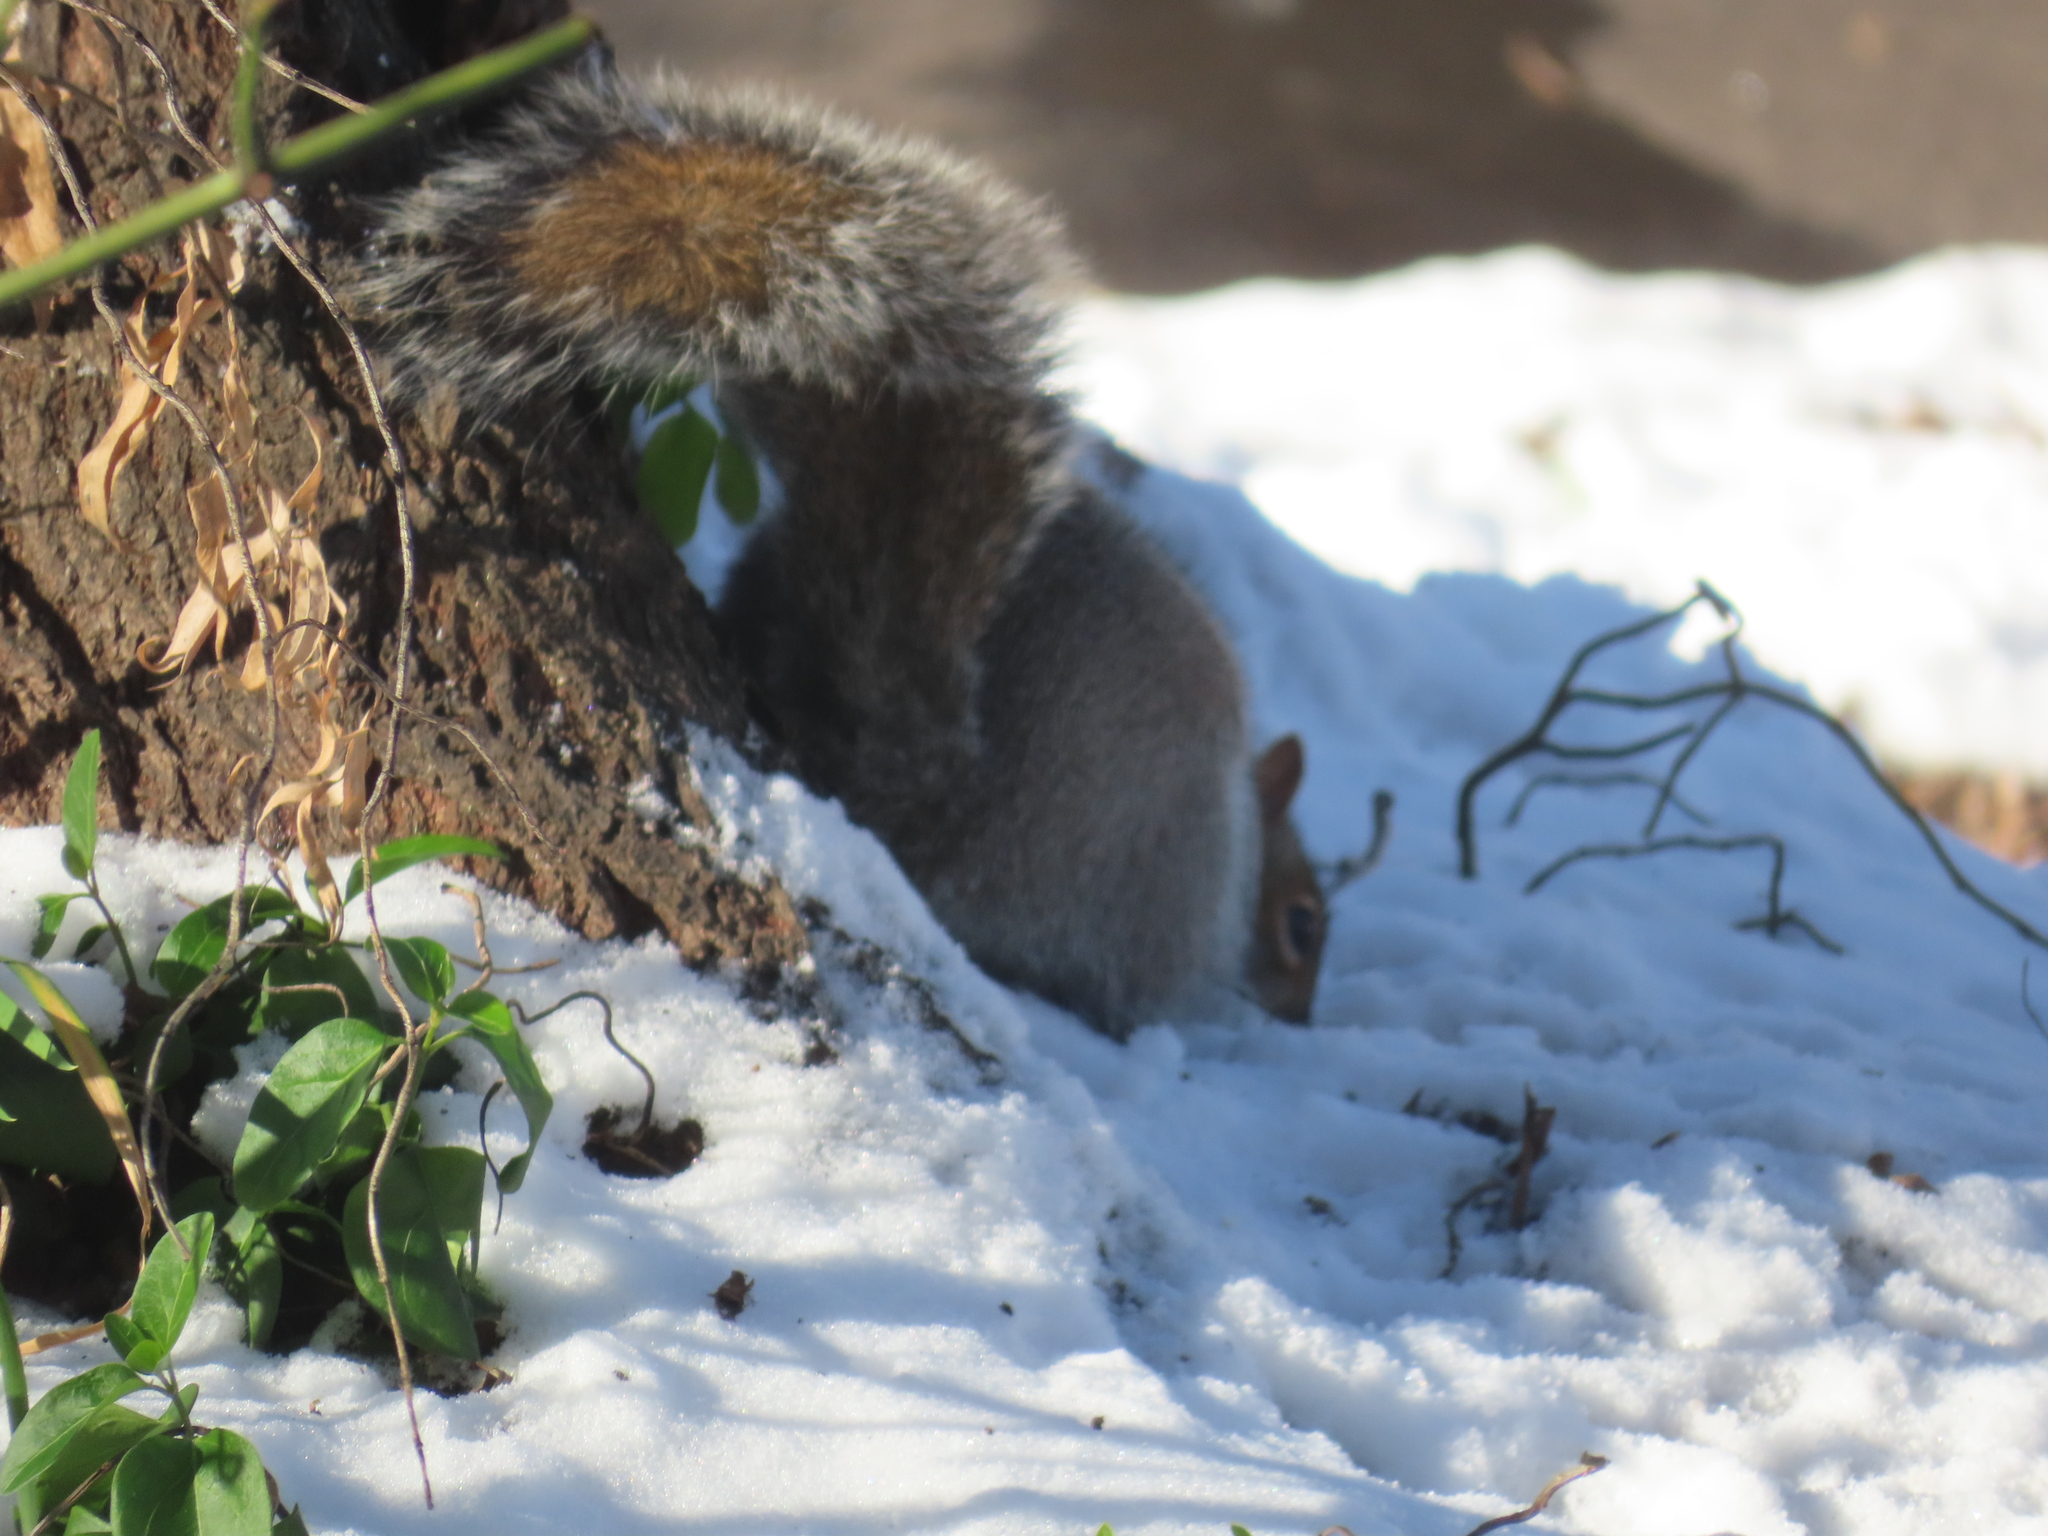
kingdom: Animalia
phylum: Chordata
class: Mammalia
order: Rodentia
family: Sciuridae
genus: Sciurus
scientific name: Sciurus carolinensis
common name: Eastern gray squirrel
